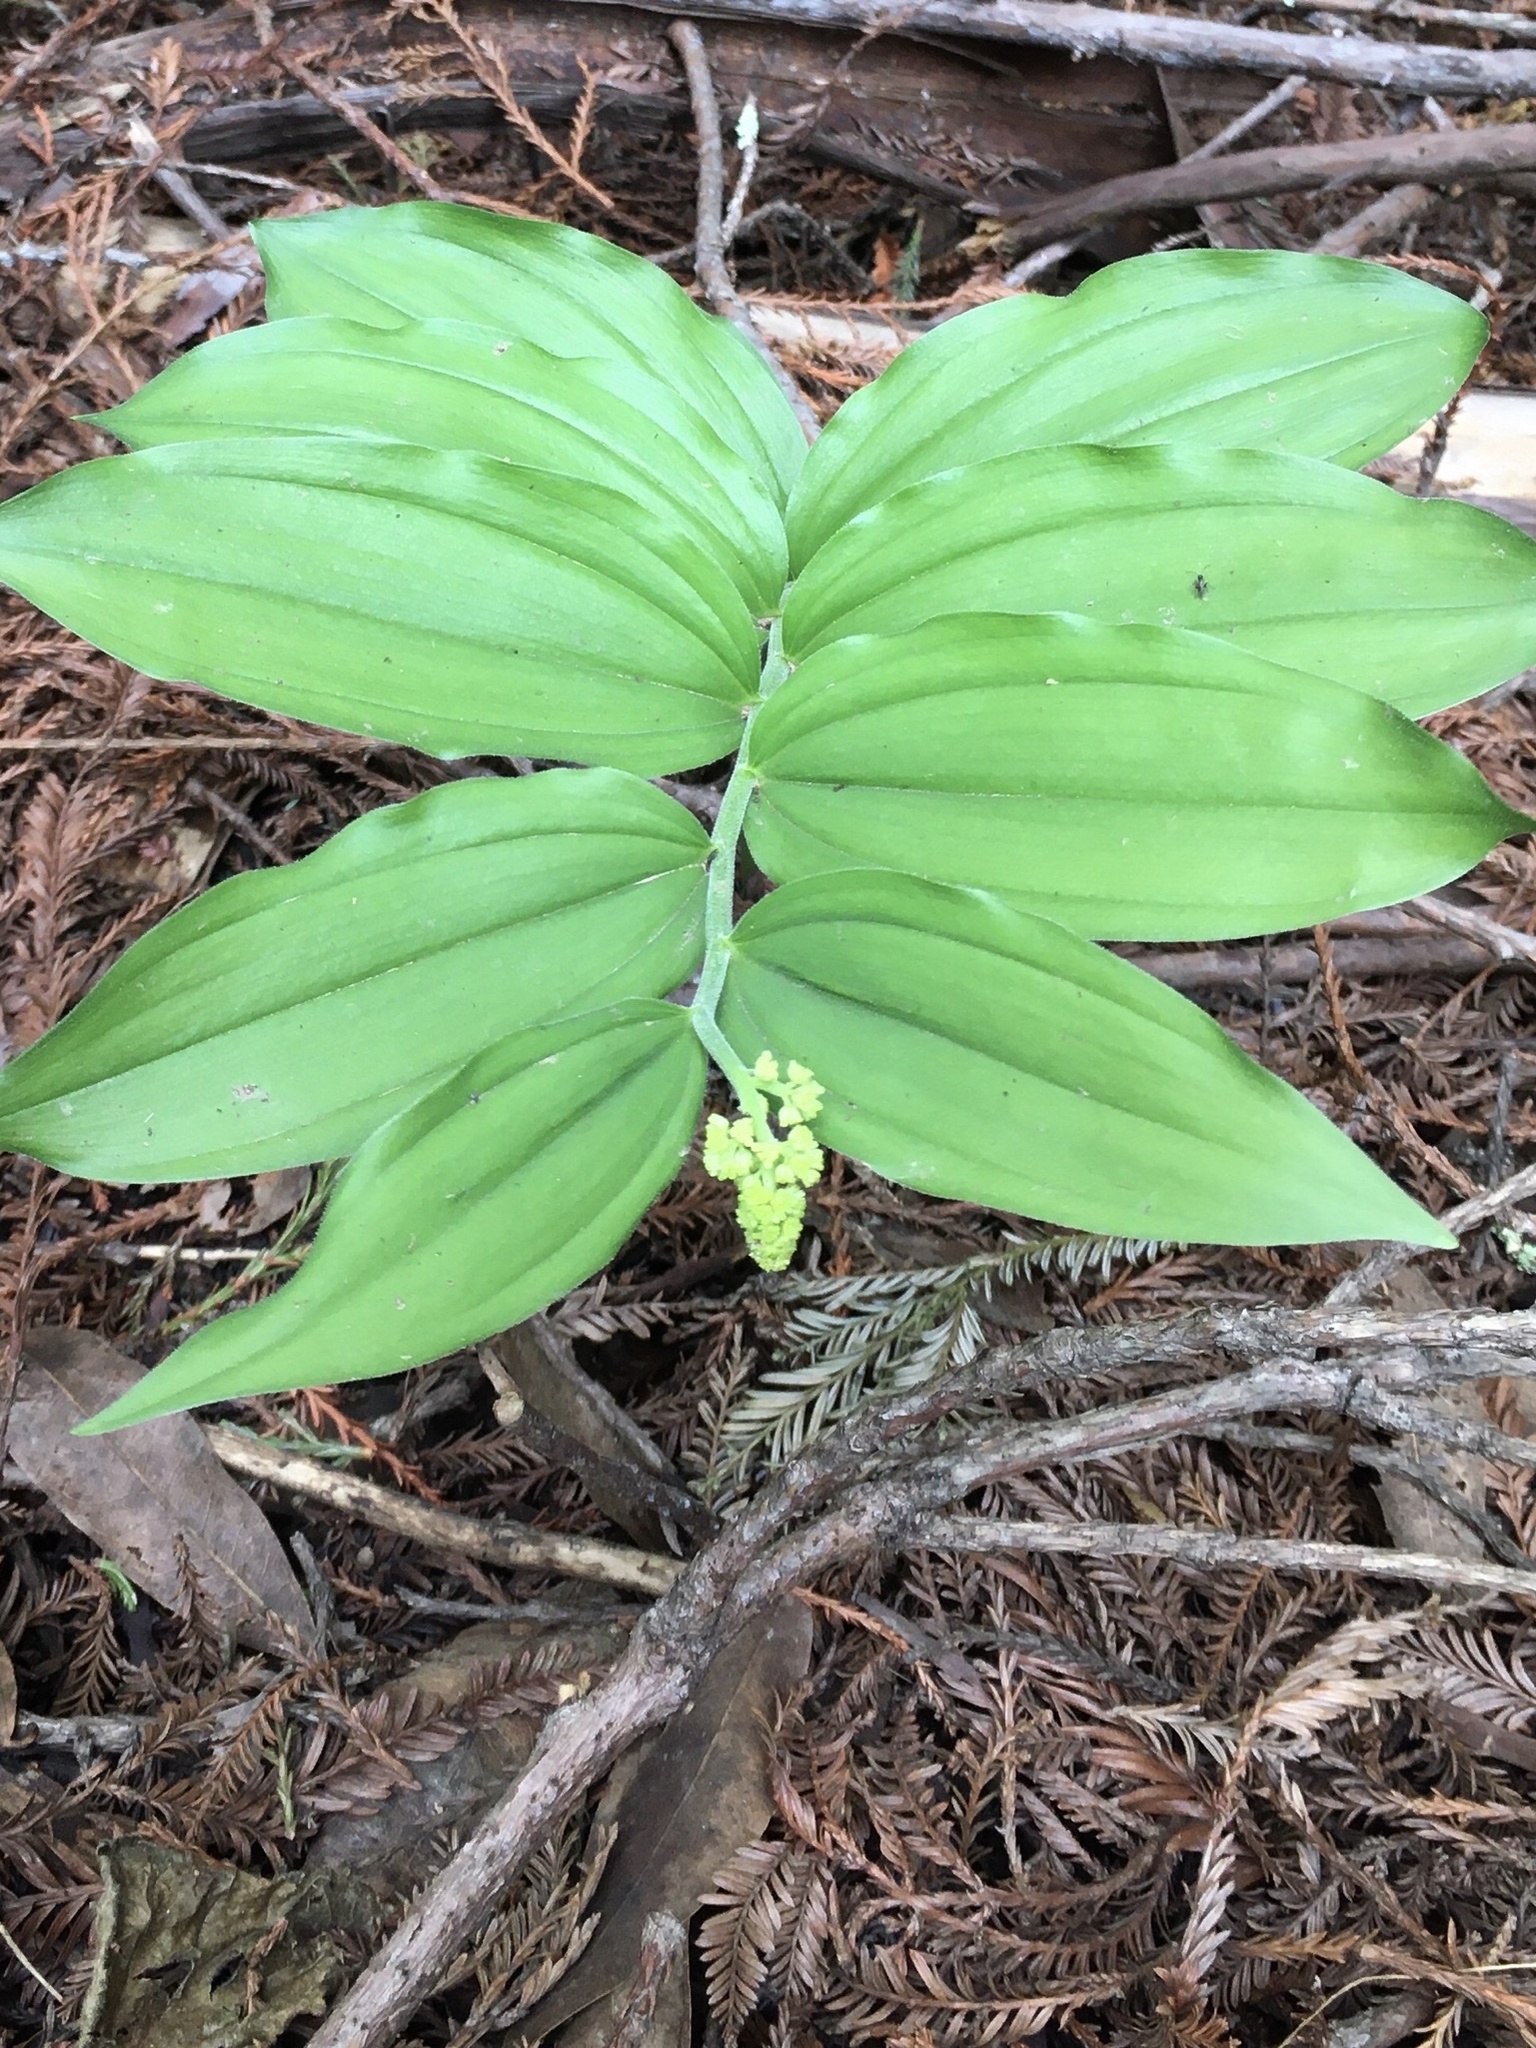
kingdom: Plantae
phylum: Tracheophyta
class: Liliopsida
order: Asparagales
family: Asparagaceae
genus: Maianthemum
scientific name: Maianthemum racemosum
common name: False spikenard
